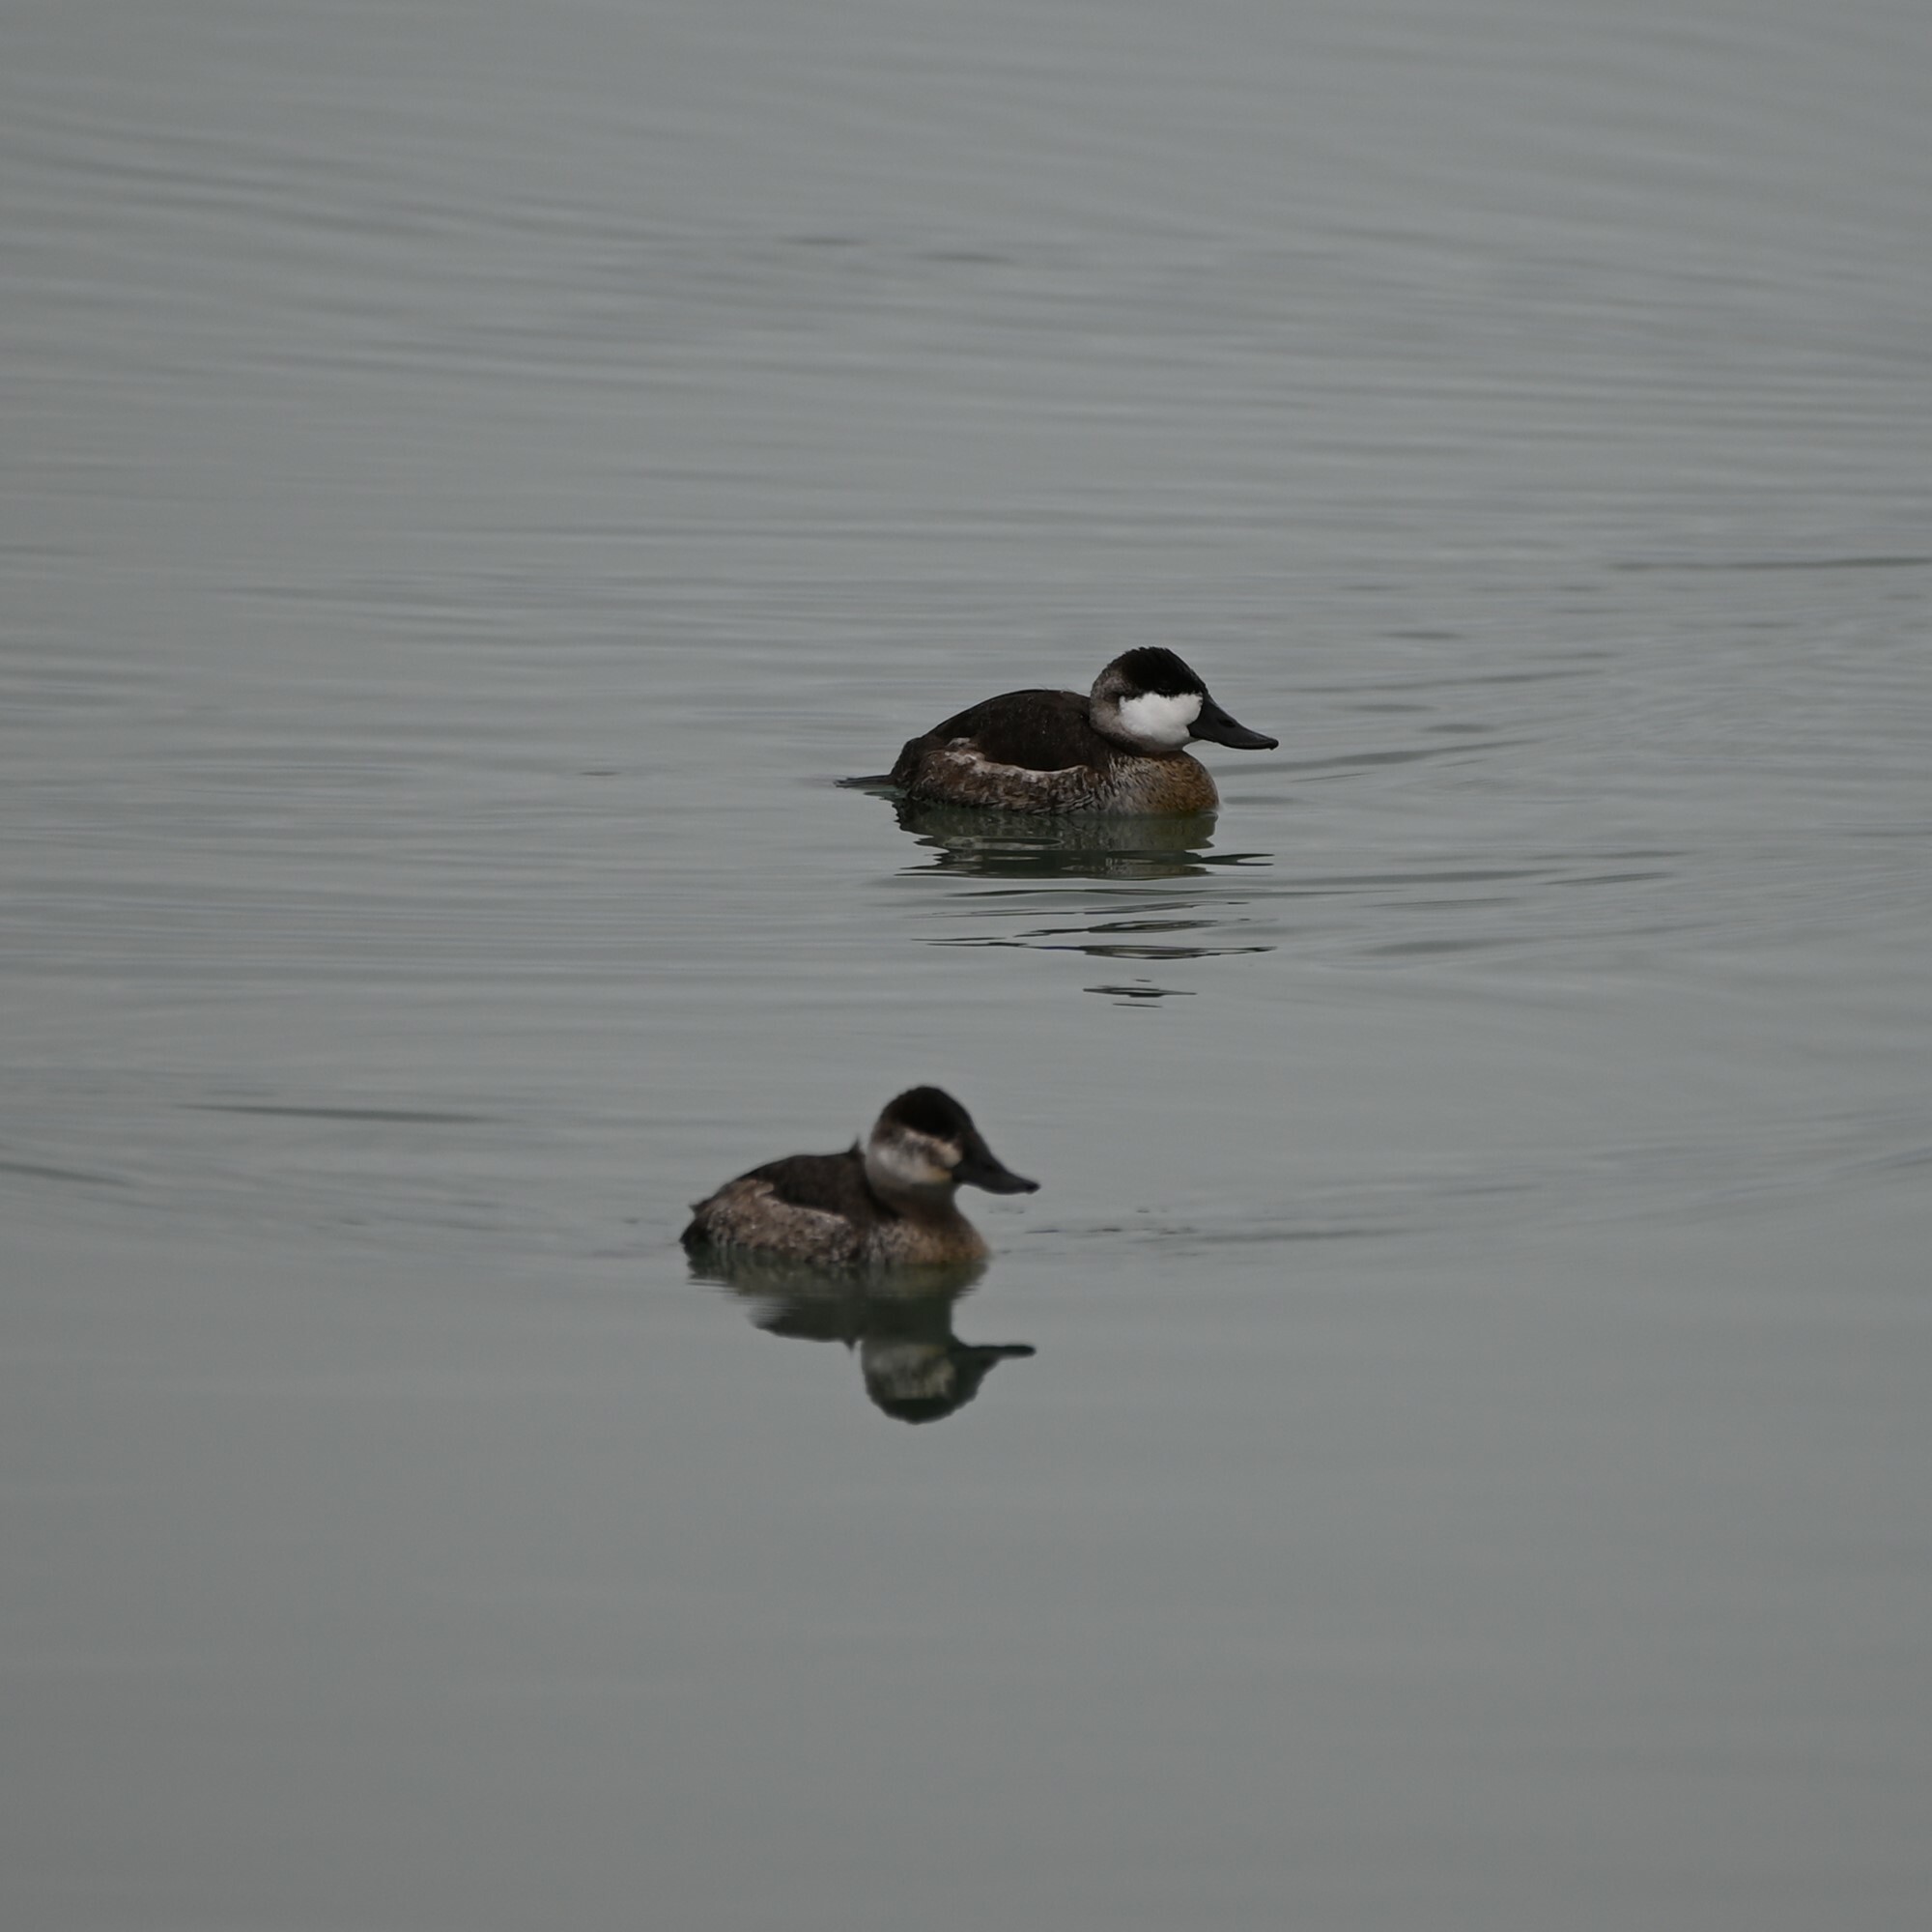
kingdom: Animalia
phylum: Chordata
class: Aves
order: Anseriformes
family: Anatidae
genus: Oxyura
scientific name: Oxyura jamaicensis
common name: Ruddy duck
